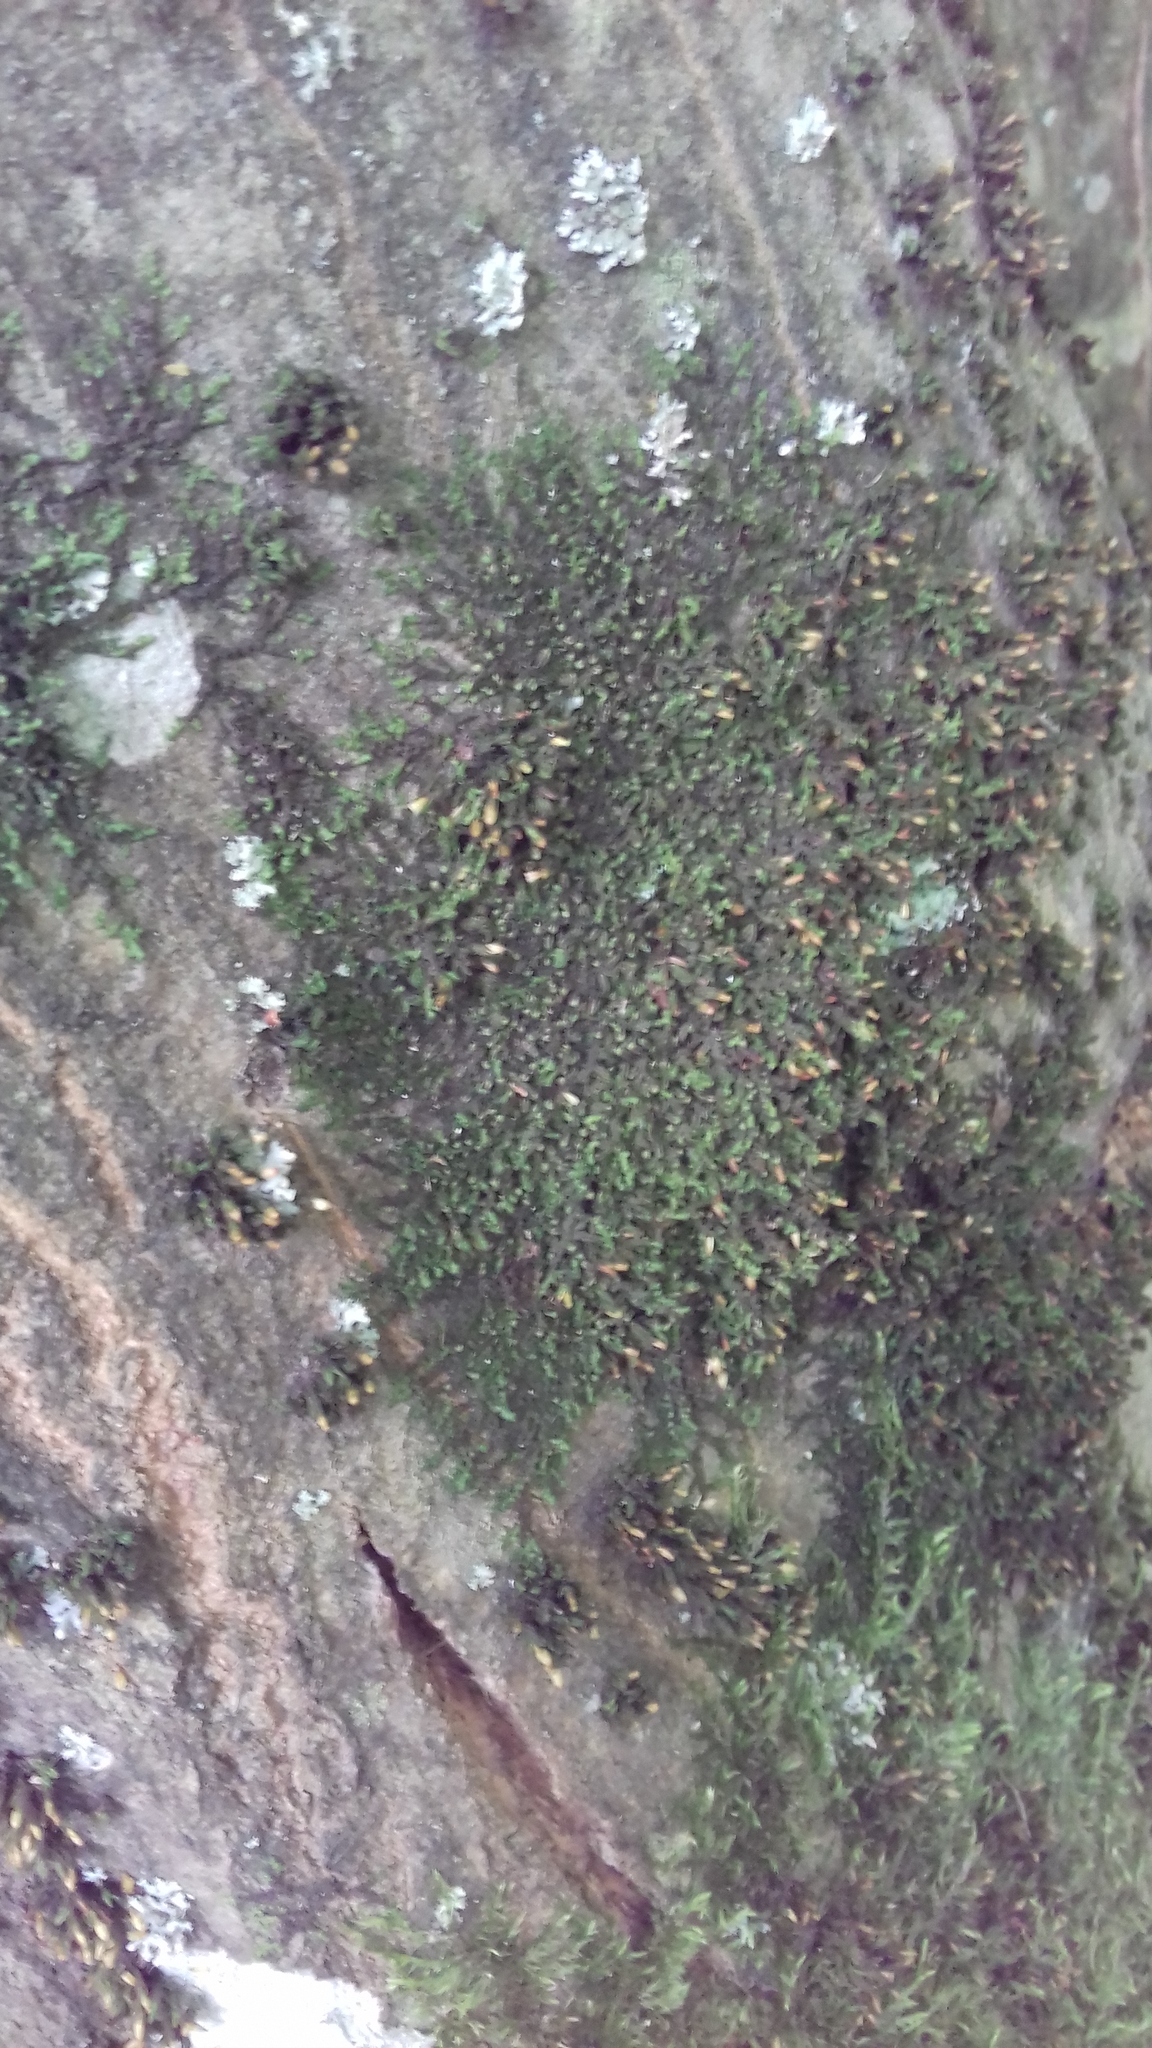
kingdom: Plantae
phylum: Marchantiophyta
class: Jungermanniopsida
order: Porellales
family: Frullaniaceae
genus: Frullania
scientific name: Frullania dilatata
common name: Dilated scalewort
